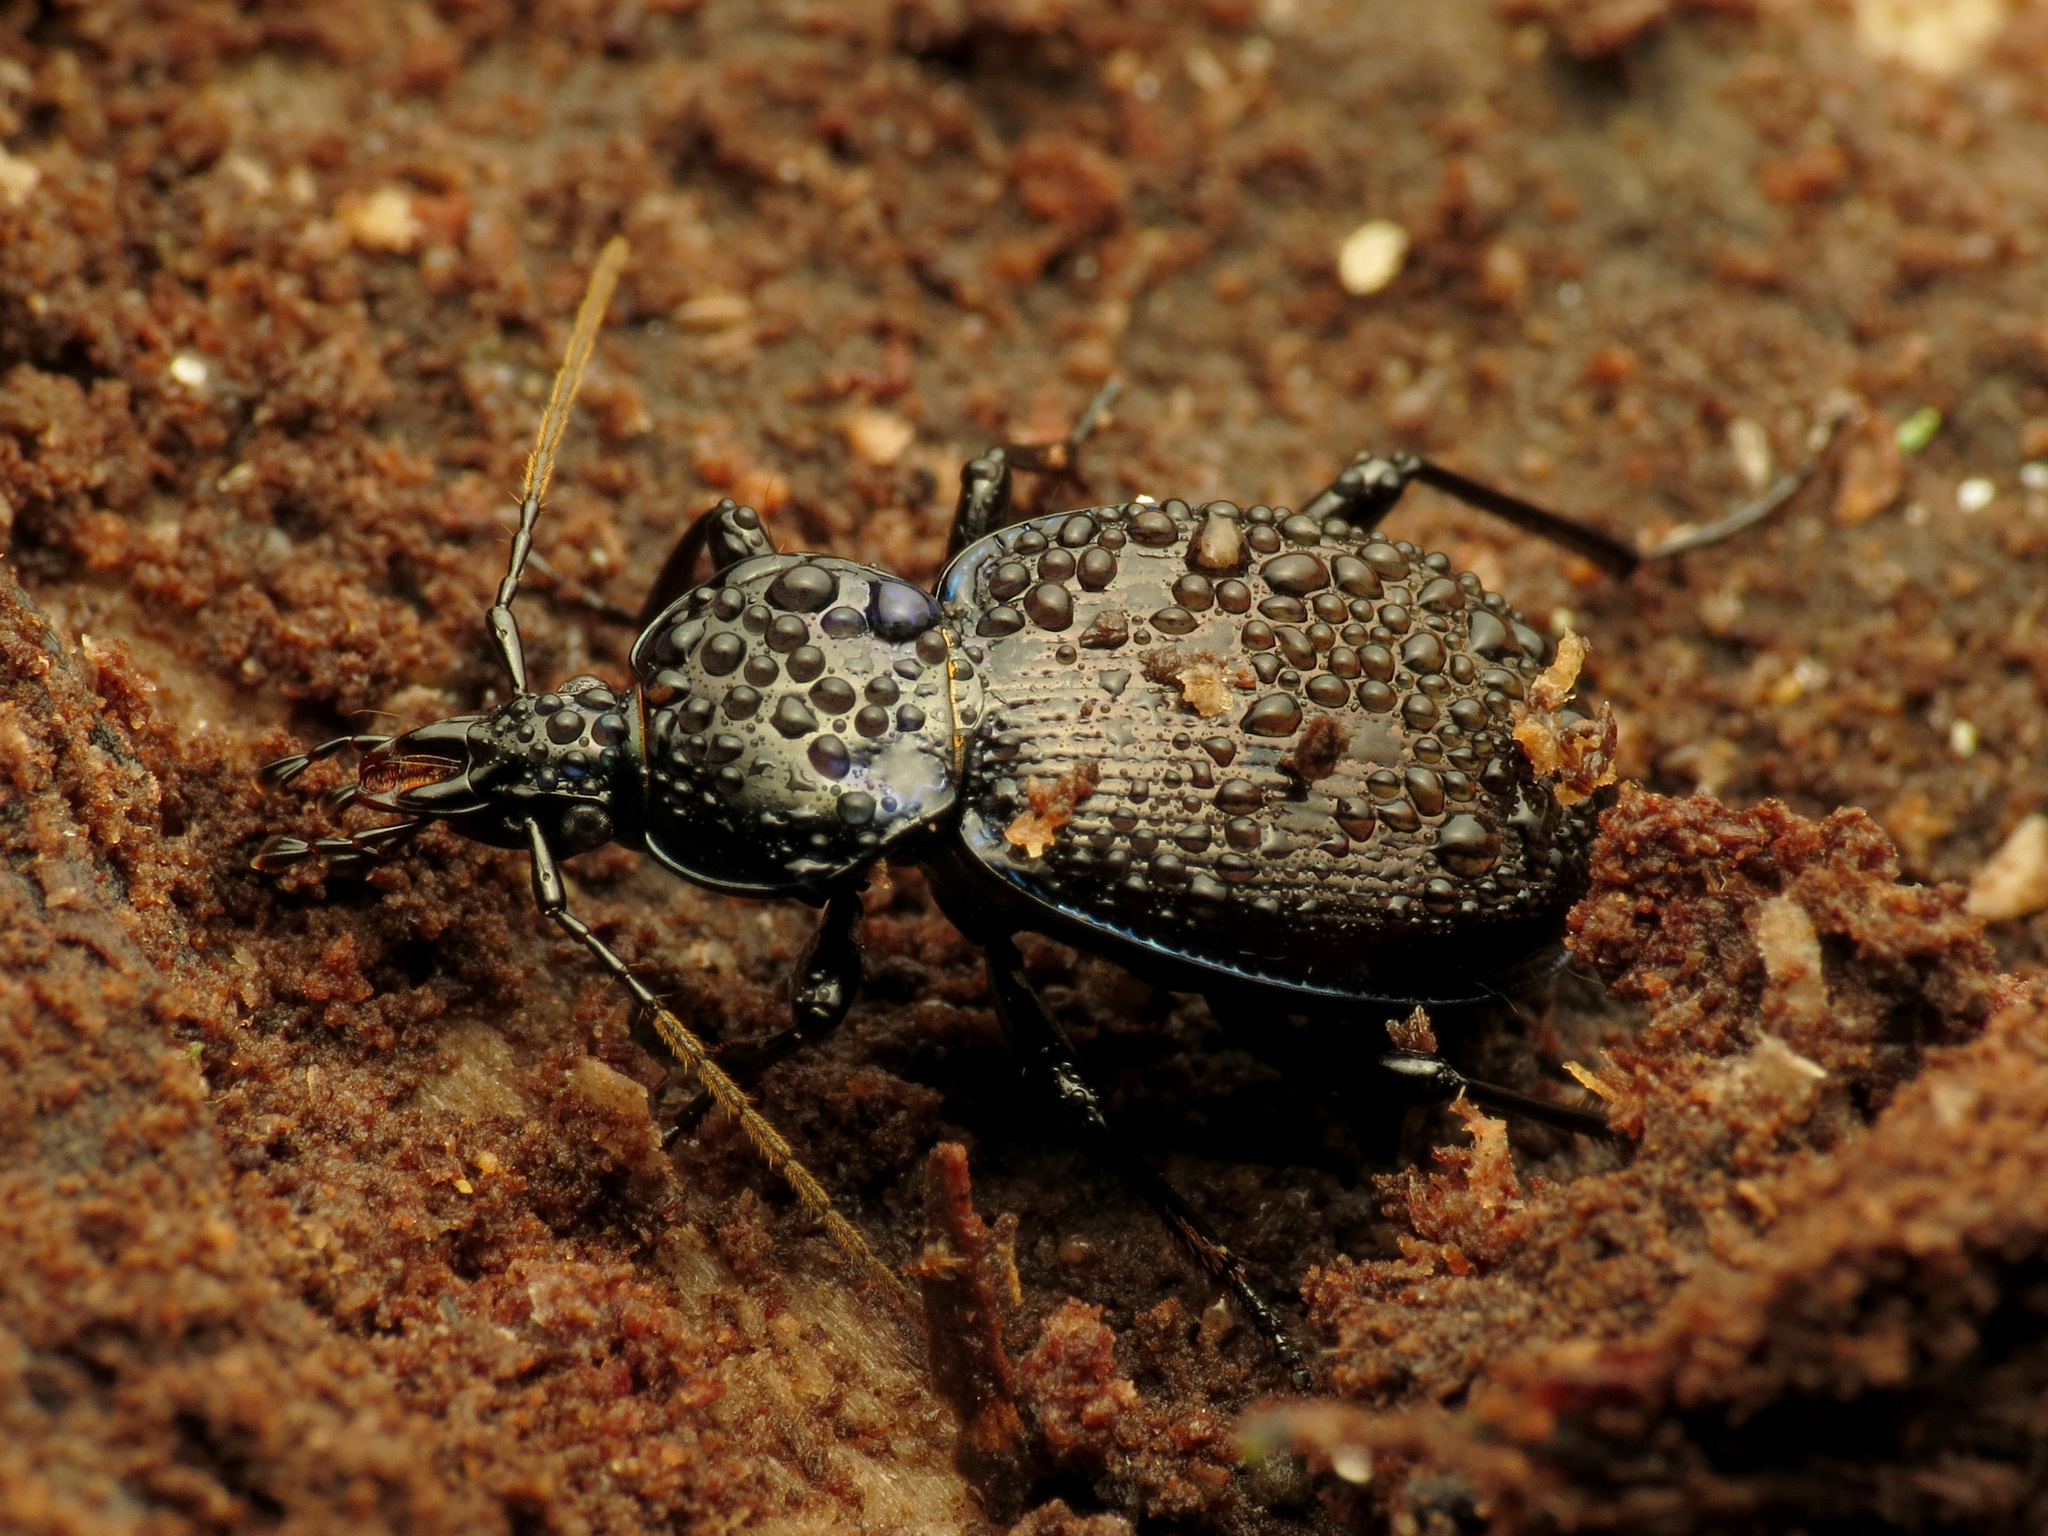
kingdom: Animalia
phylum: Arthropoda
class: Insecta
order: Coleoptera
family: Carabidae
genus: Sphaeroderus
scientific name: Sphaeroderus stenostomus
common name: Small snail-eating ground beetle
